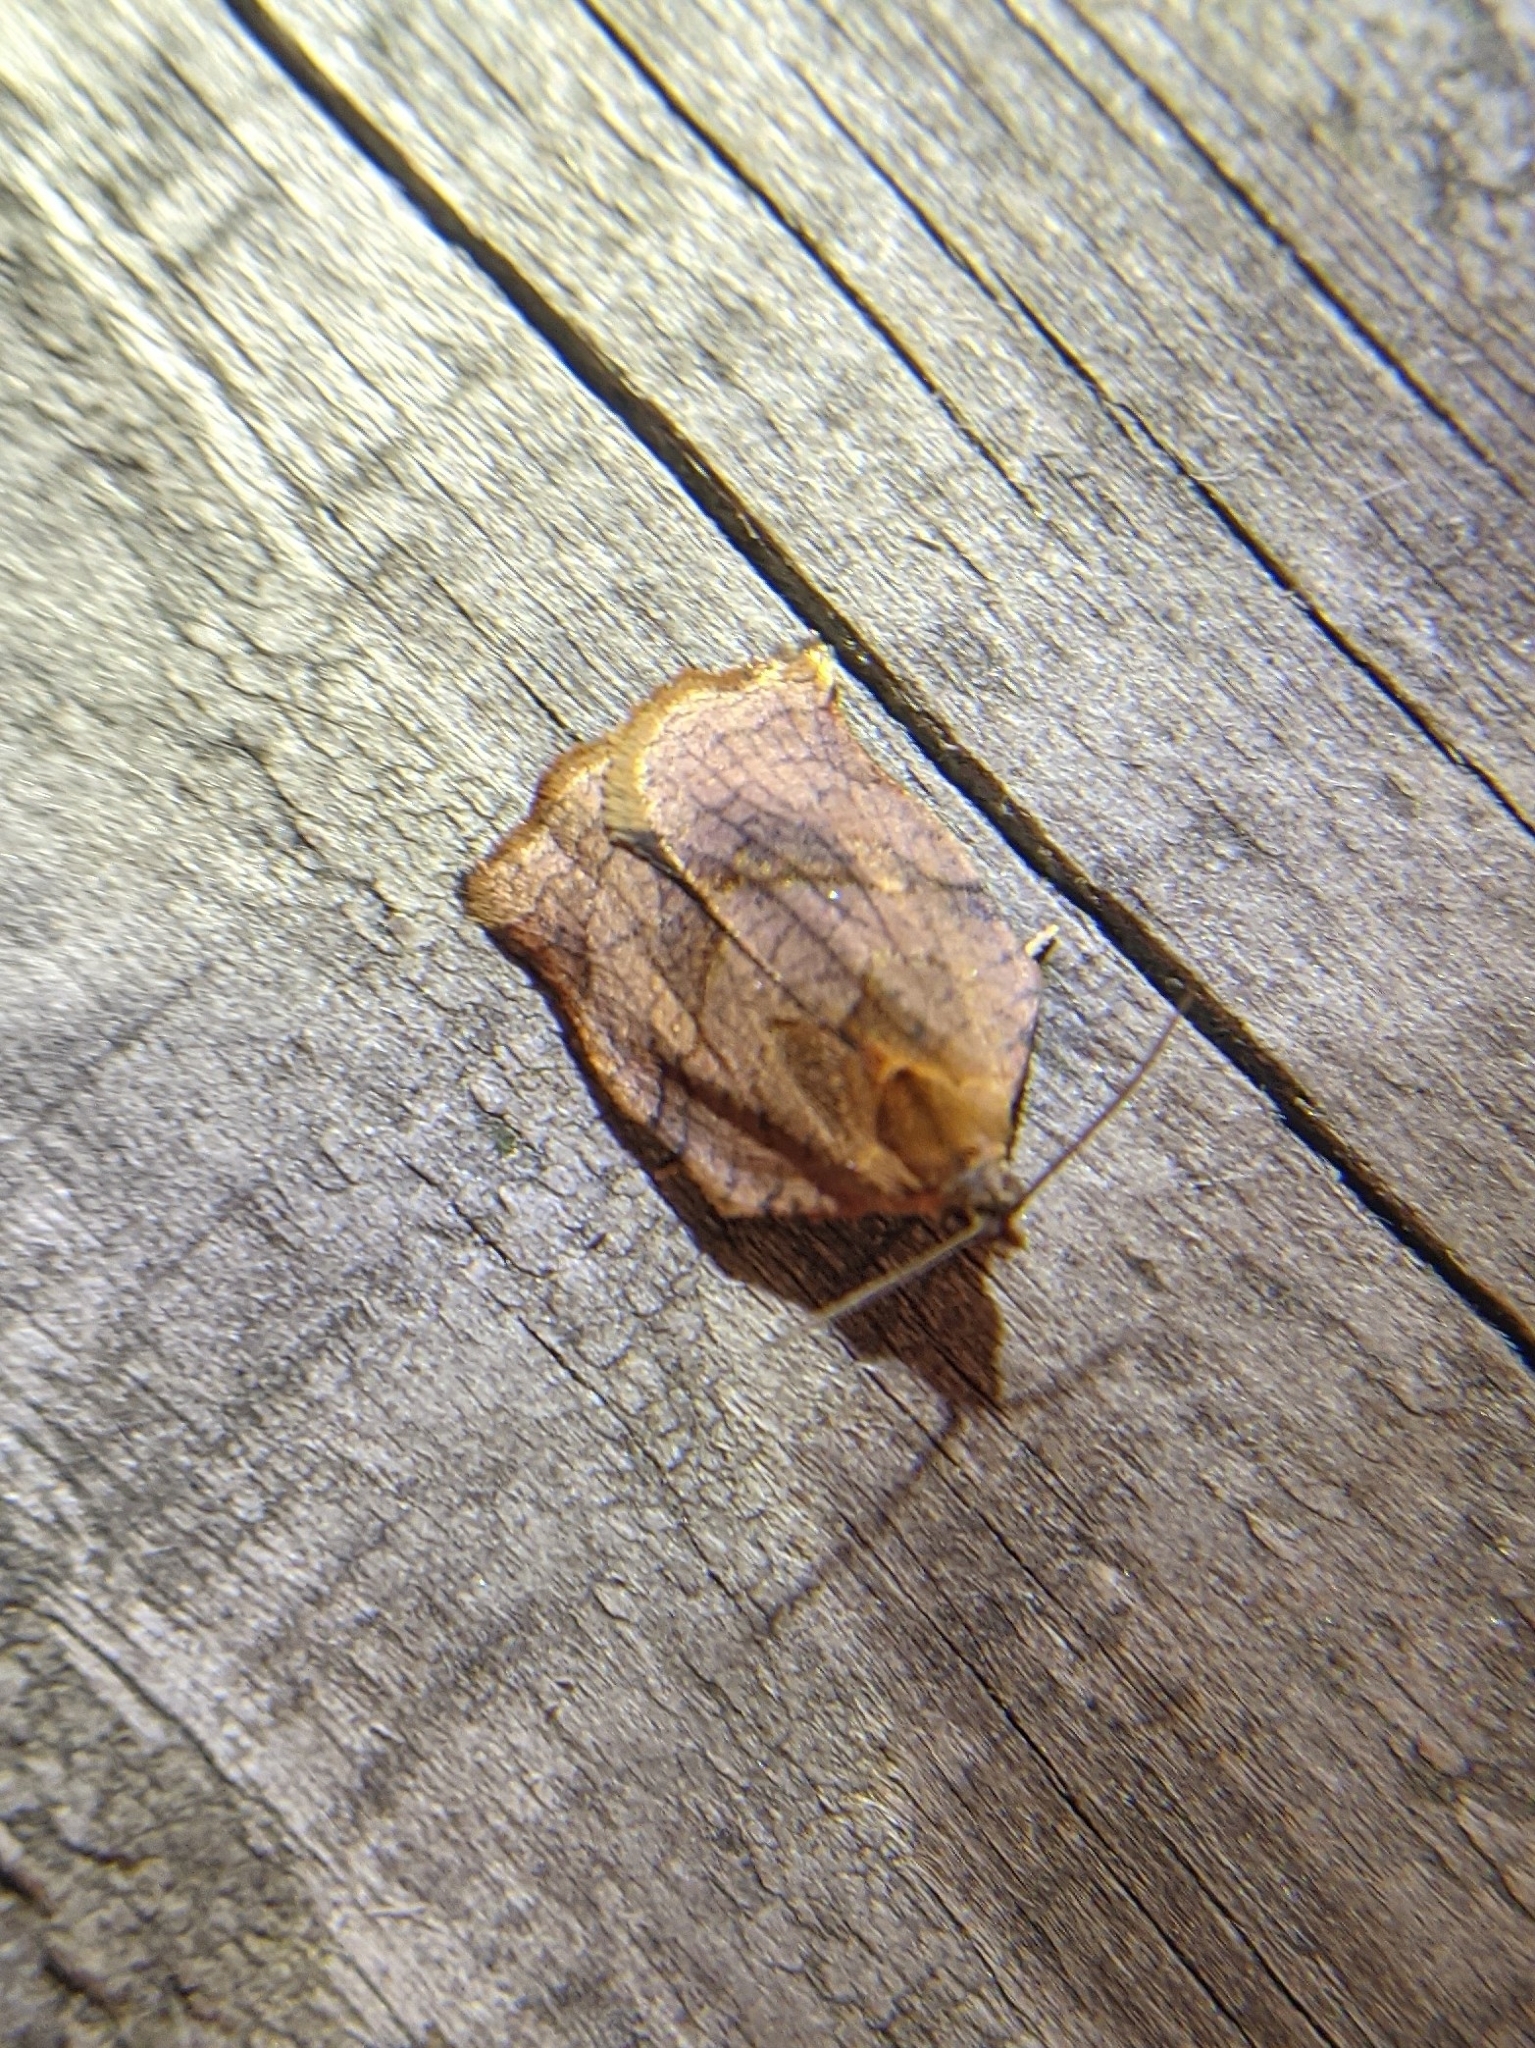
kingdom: Animalia
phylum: Arthropoda
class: Insecta
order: Lepidoptera
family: Tortricidae
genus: Archips
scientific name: Archips purpurana
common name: Omnivorous leafroller
